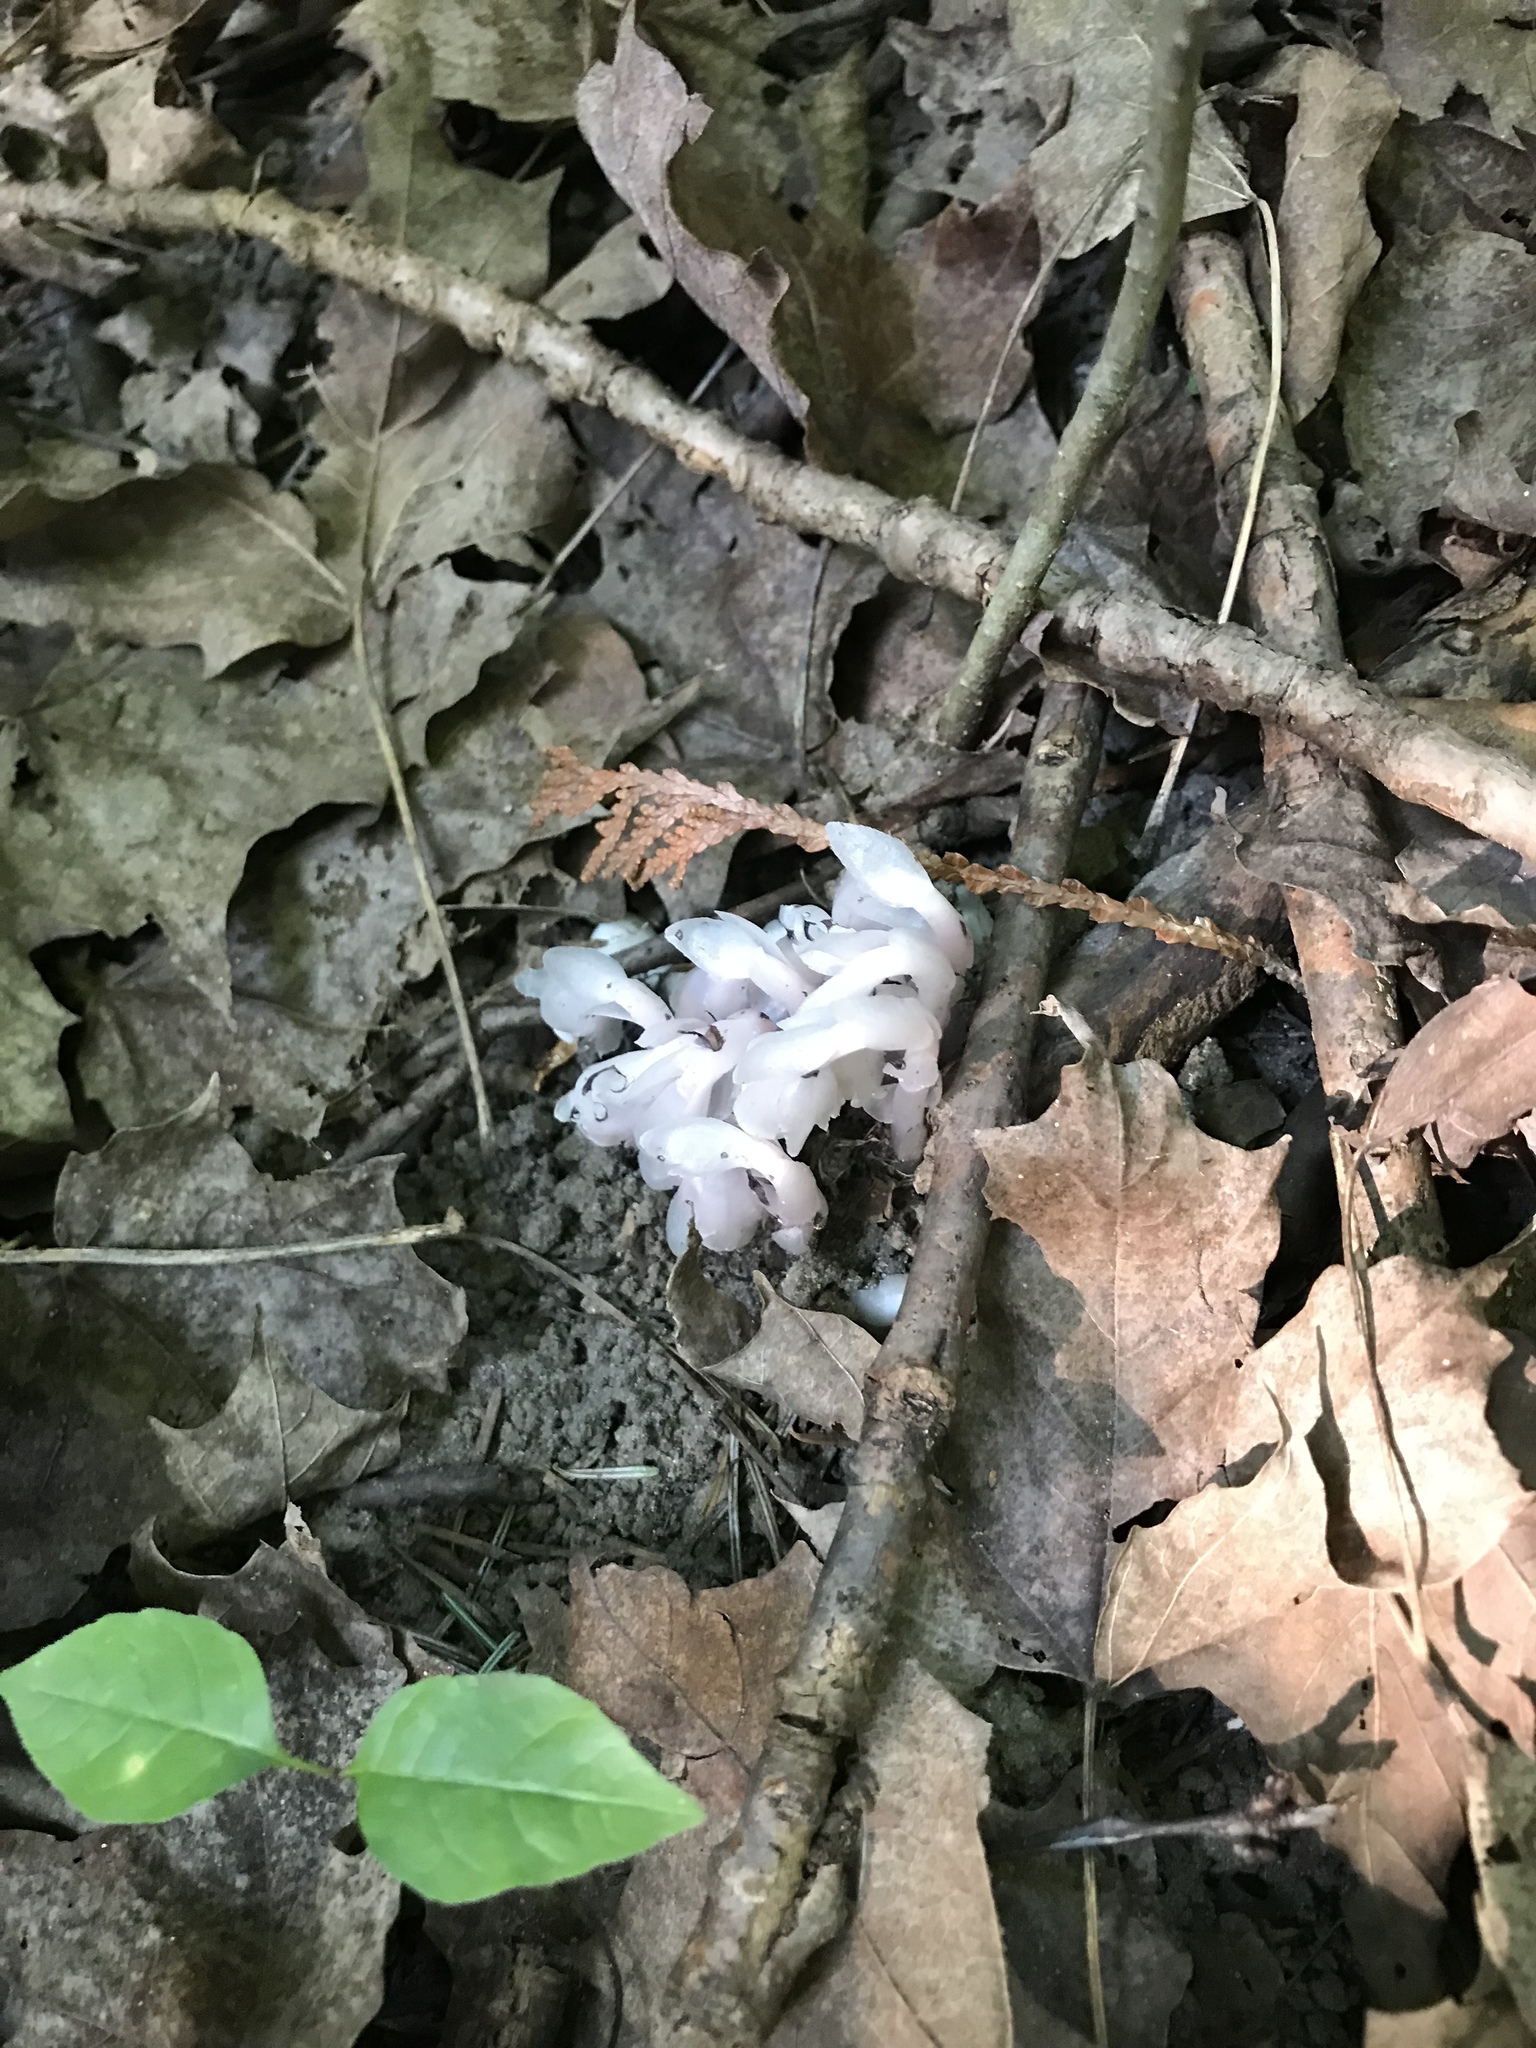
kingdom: Plantae
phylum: Tracheophyta
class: Magnoliopsida
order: Ericales
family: Ericaceae
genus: Monotropa
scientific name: Monotropa uniflora
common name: Convulsion root
